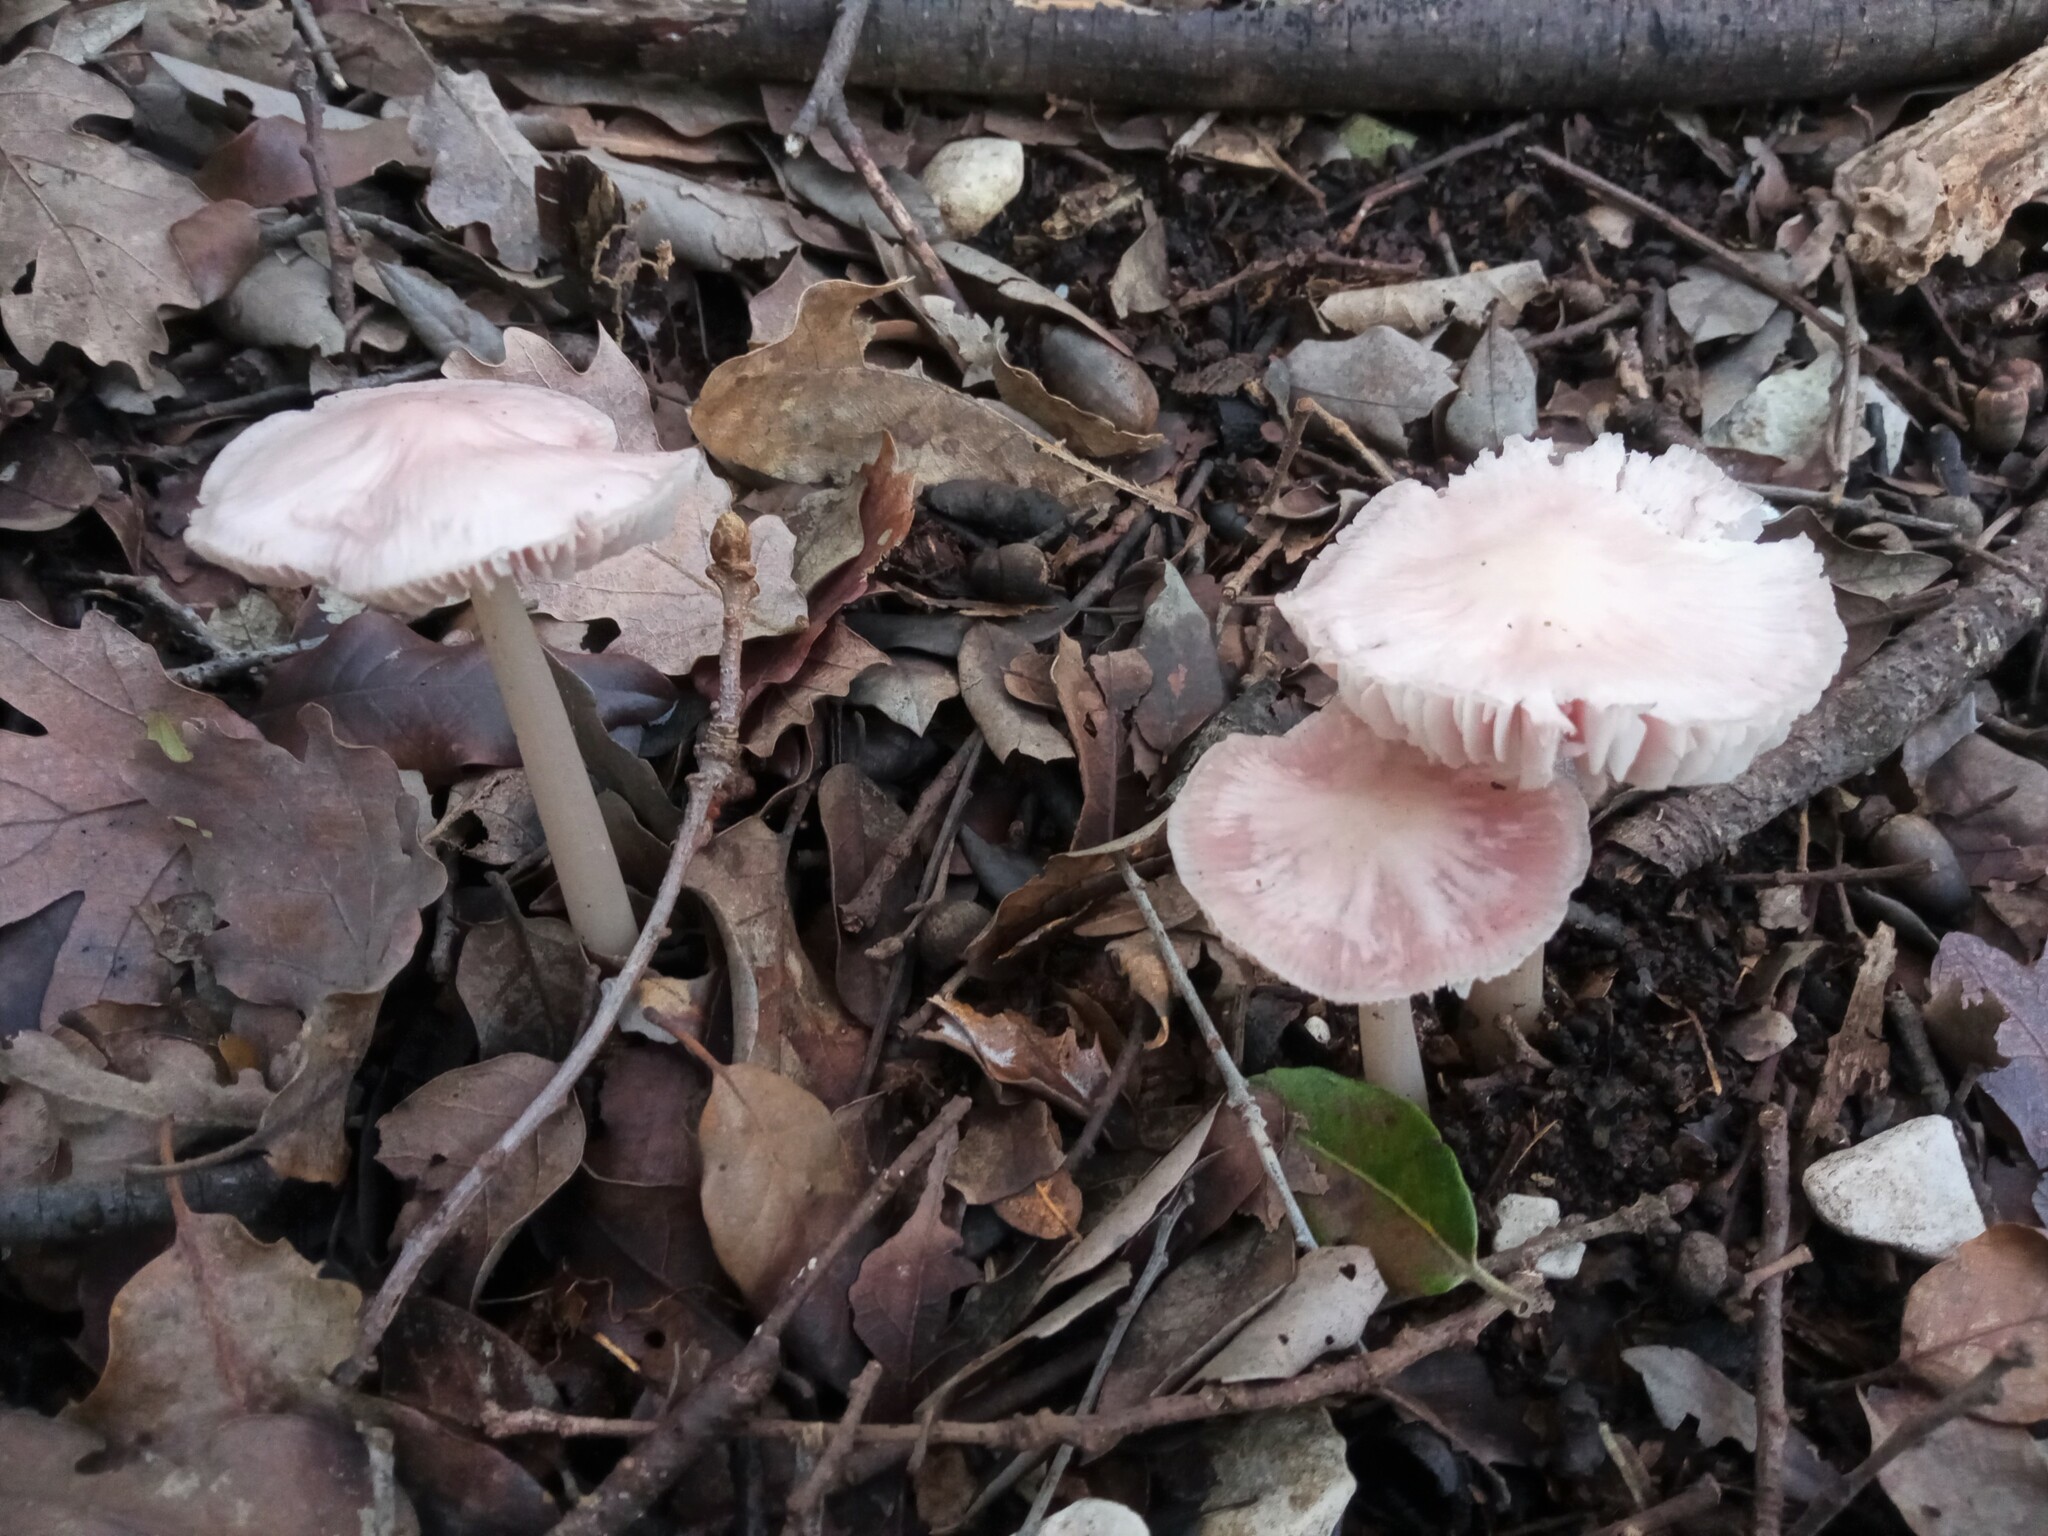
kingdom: Fungi
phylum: Basidiomycota
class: Agaricomycetes
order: Agaricales
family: Mycenaceae
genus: Mycena
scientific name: Mycena rosea
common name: Rosy bonnet
